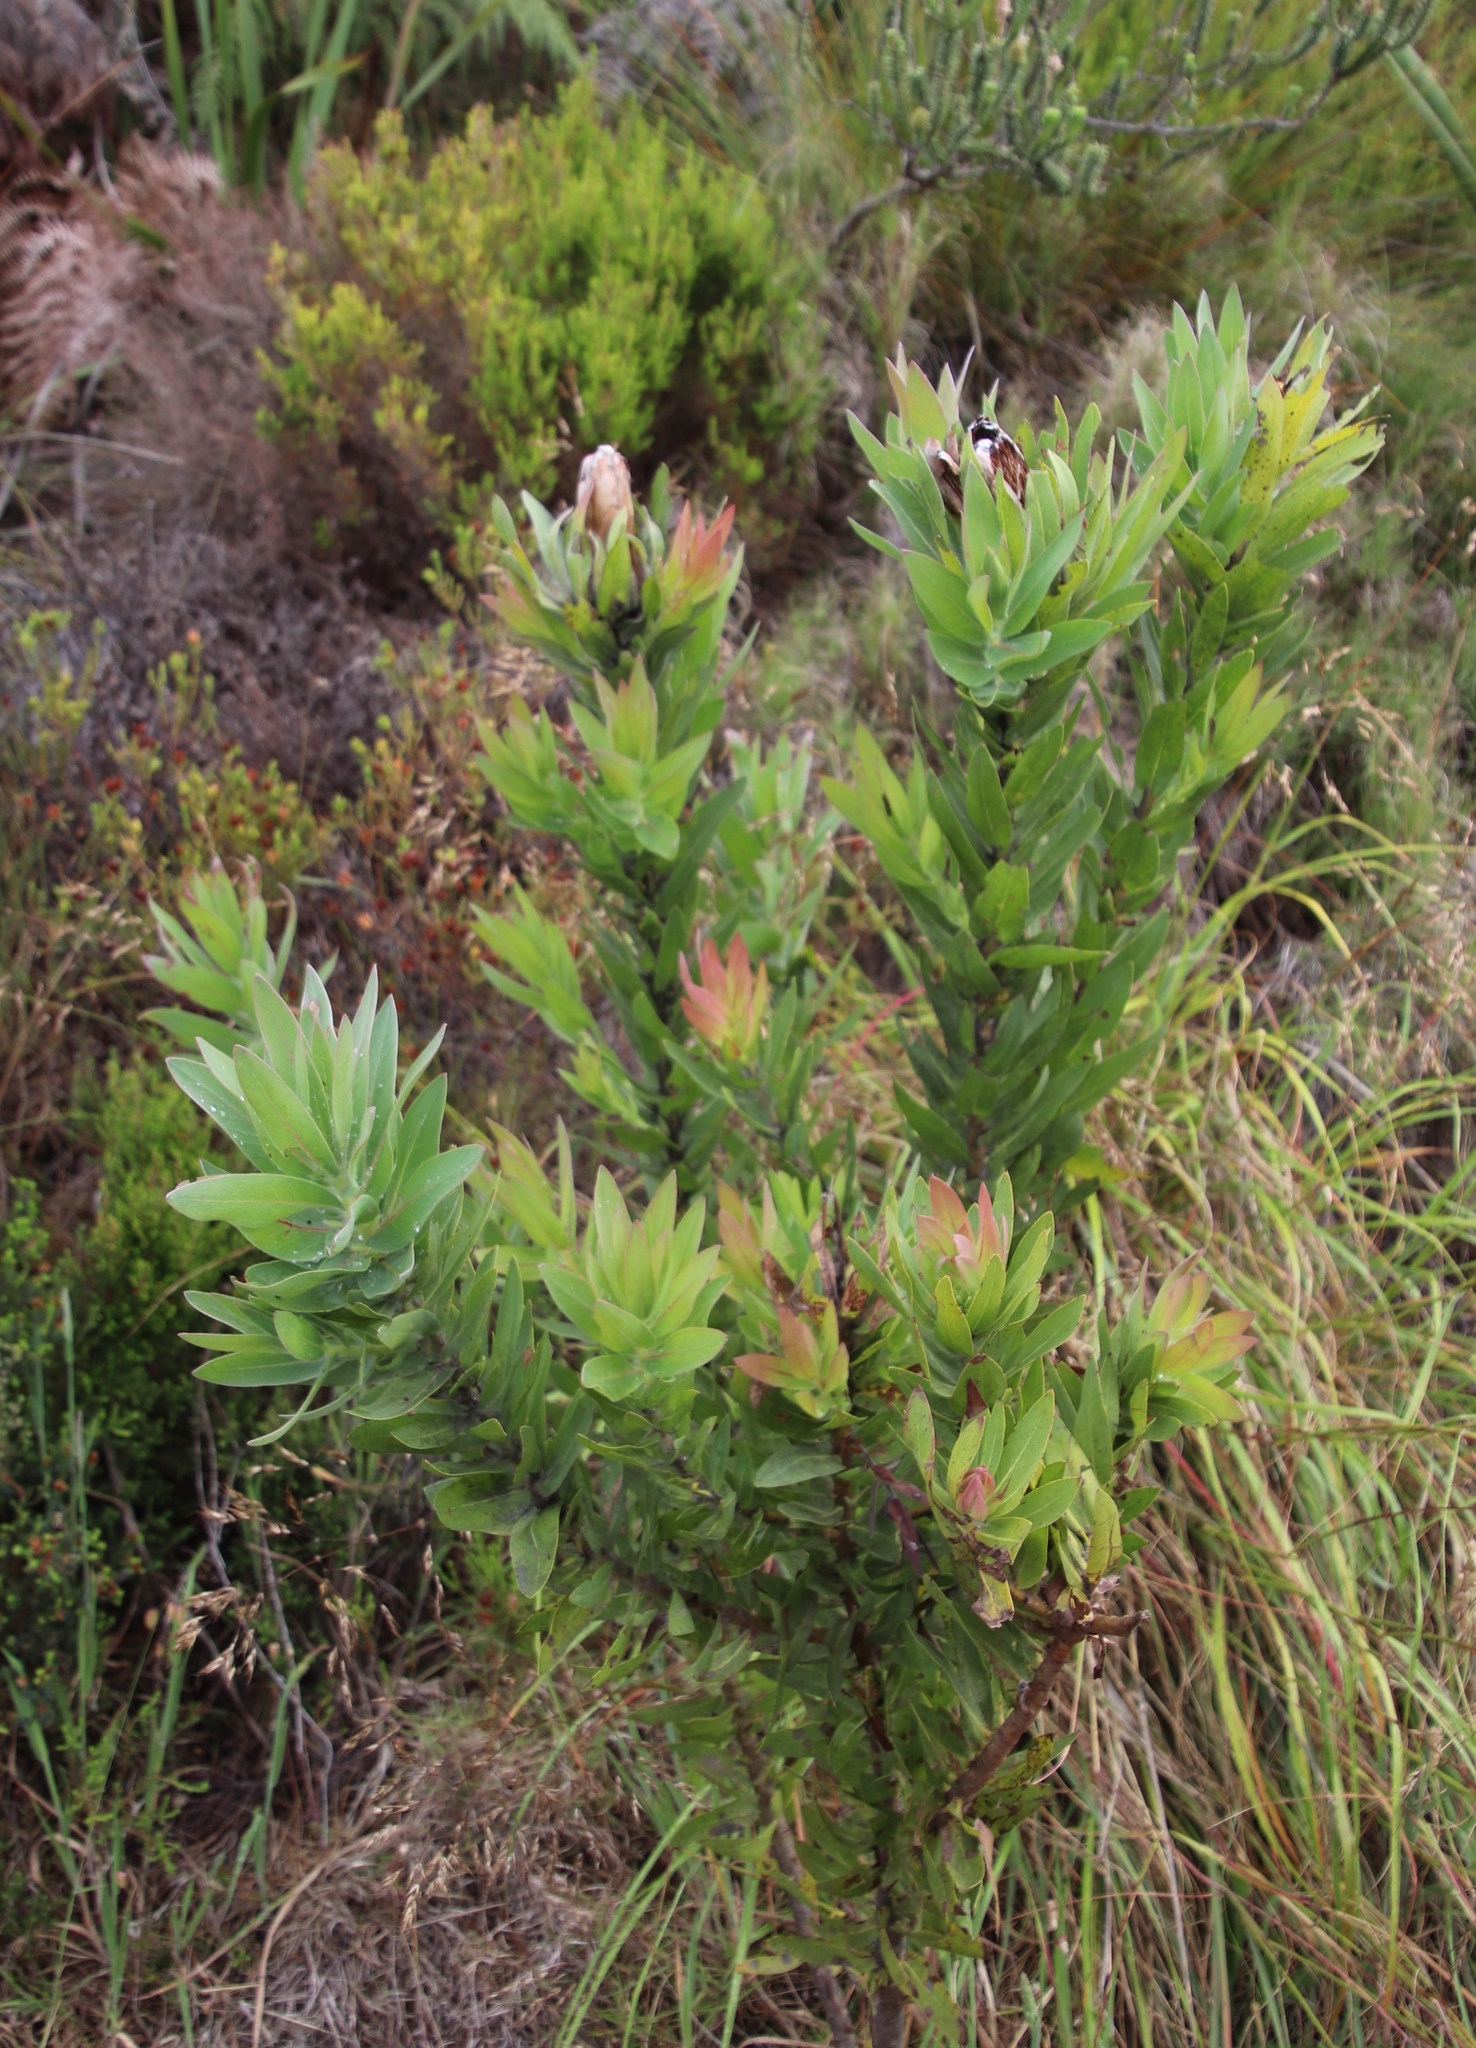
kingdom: Plantae
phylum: Tracheophyta
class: Magnoliopsida
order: Proteales
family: Proteaceae
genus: Protea
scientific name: Protea coronata
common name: Green sugarbush
